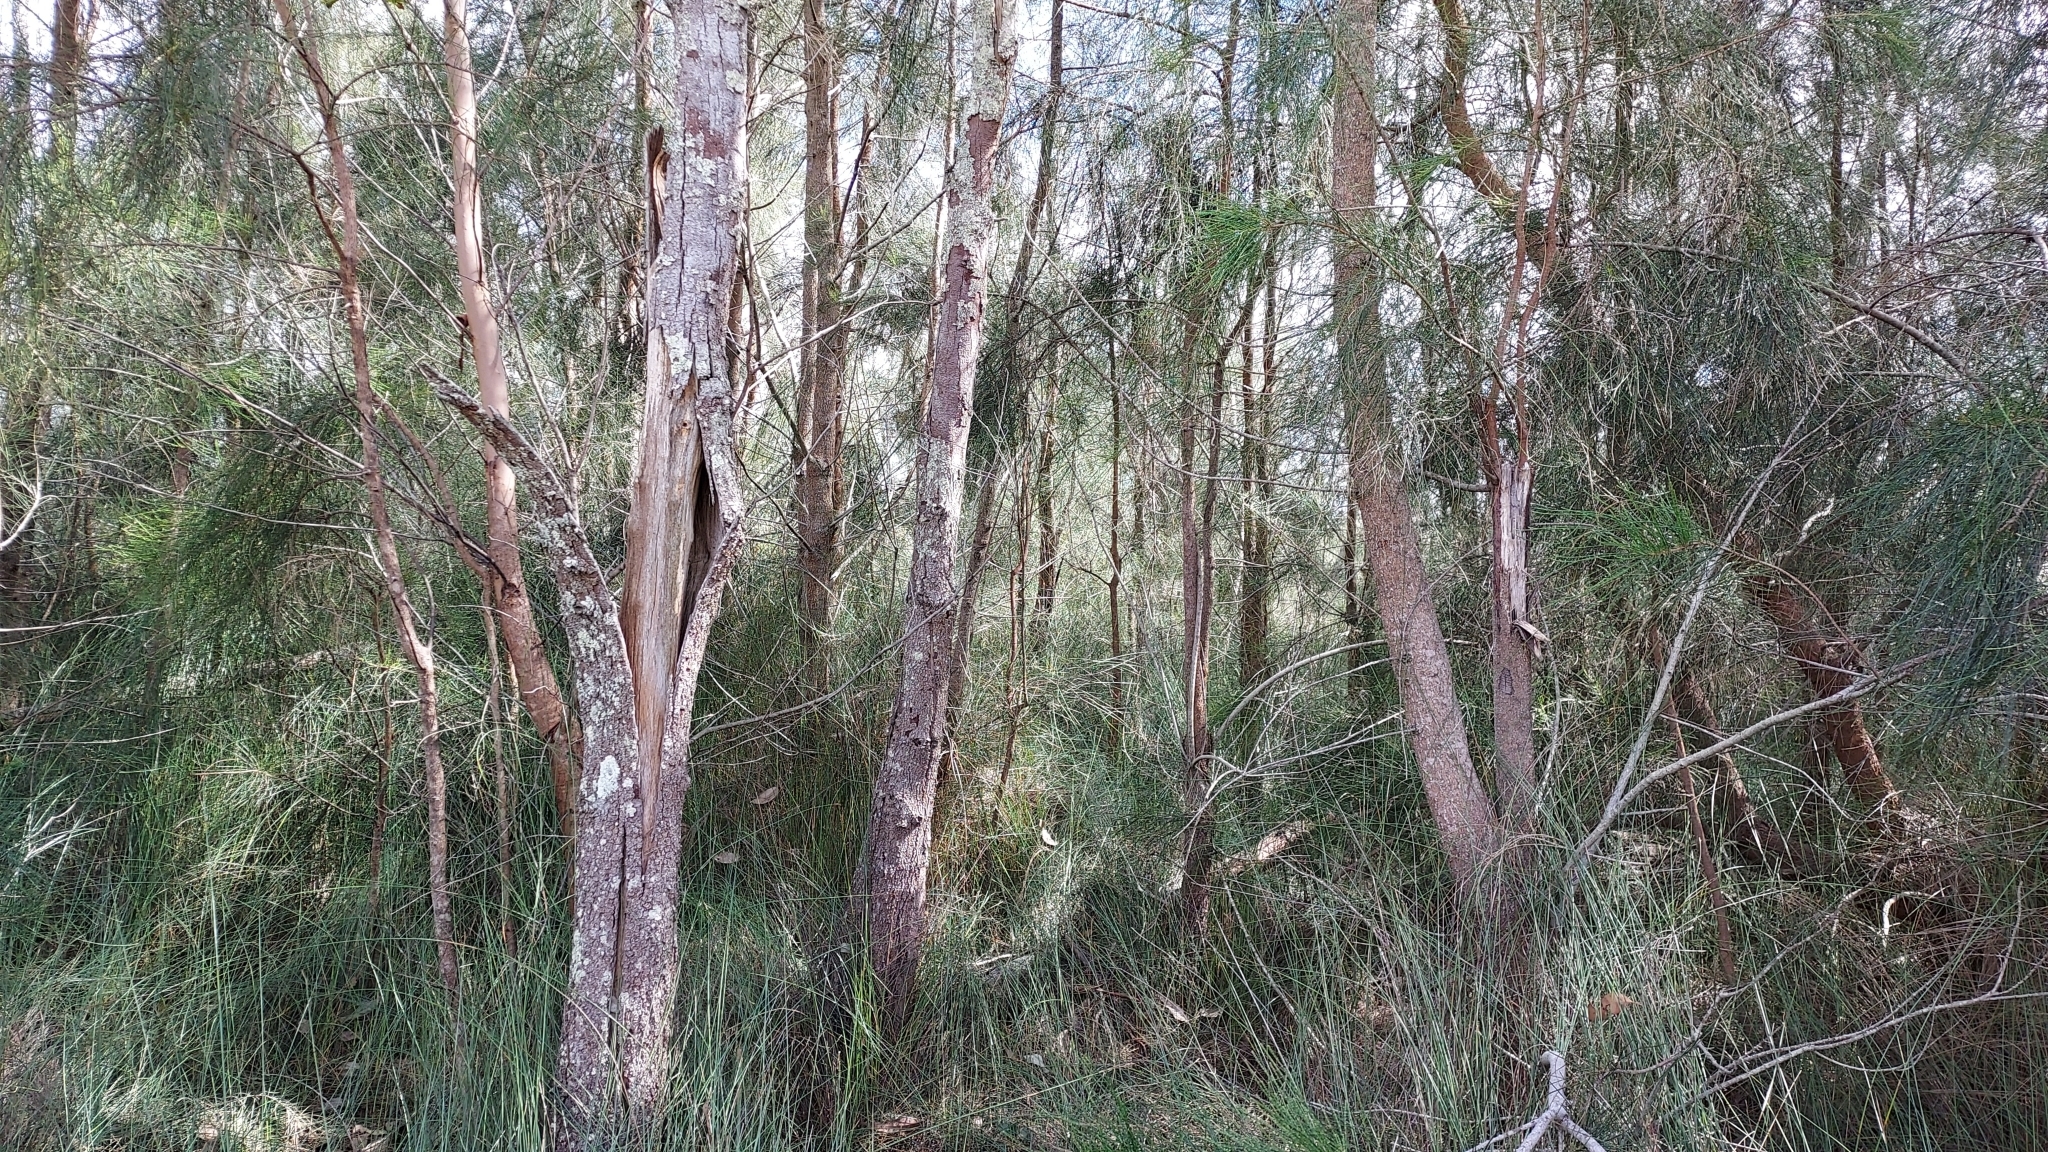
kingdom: Plantae
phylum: Tracheophyta
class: Magnoliopsida
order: Fagales
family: Casuarinaceae
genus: Casuarina
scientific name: Casuarina glauca
